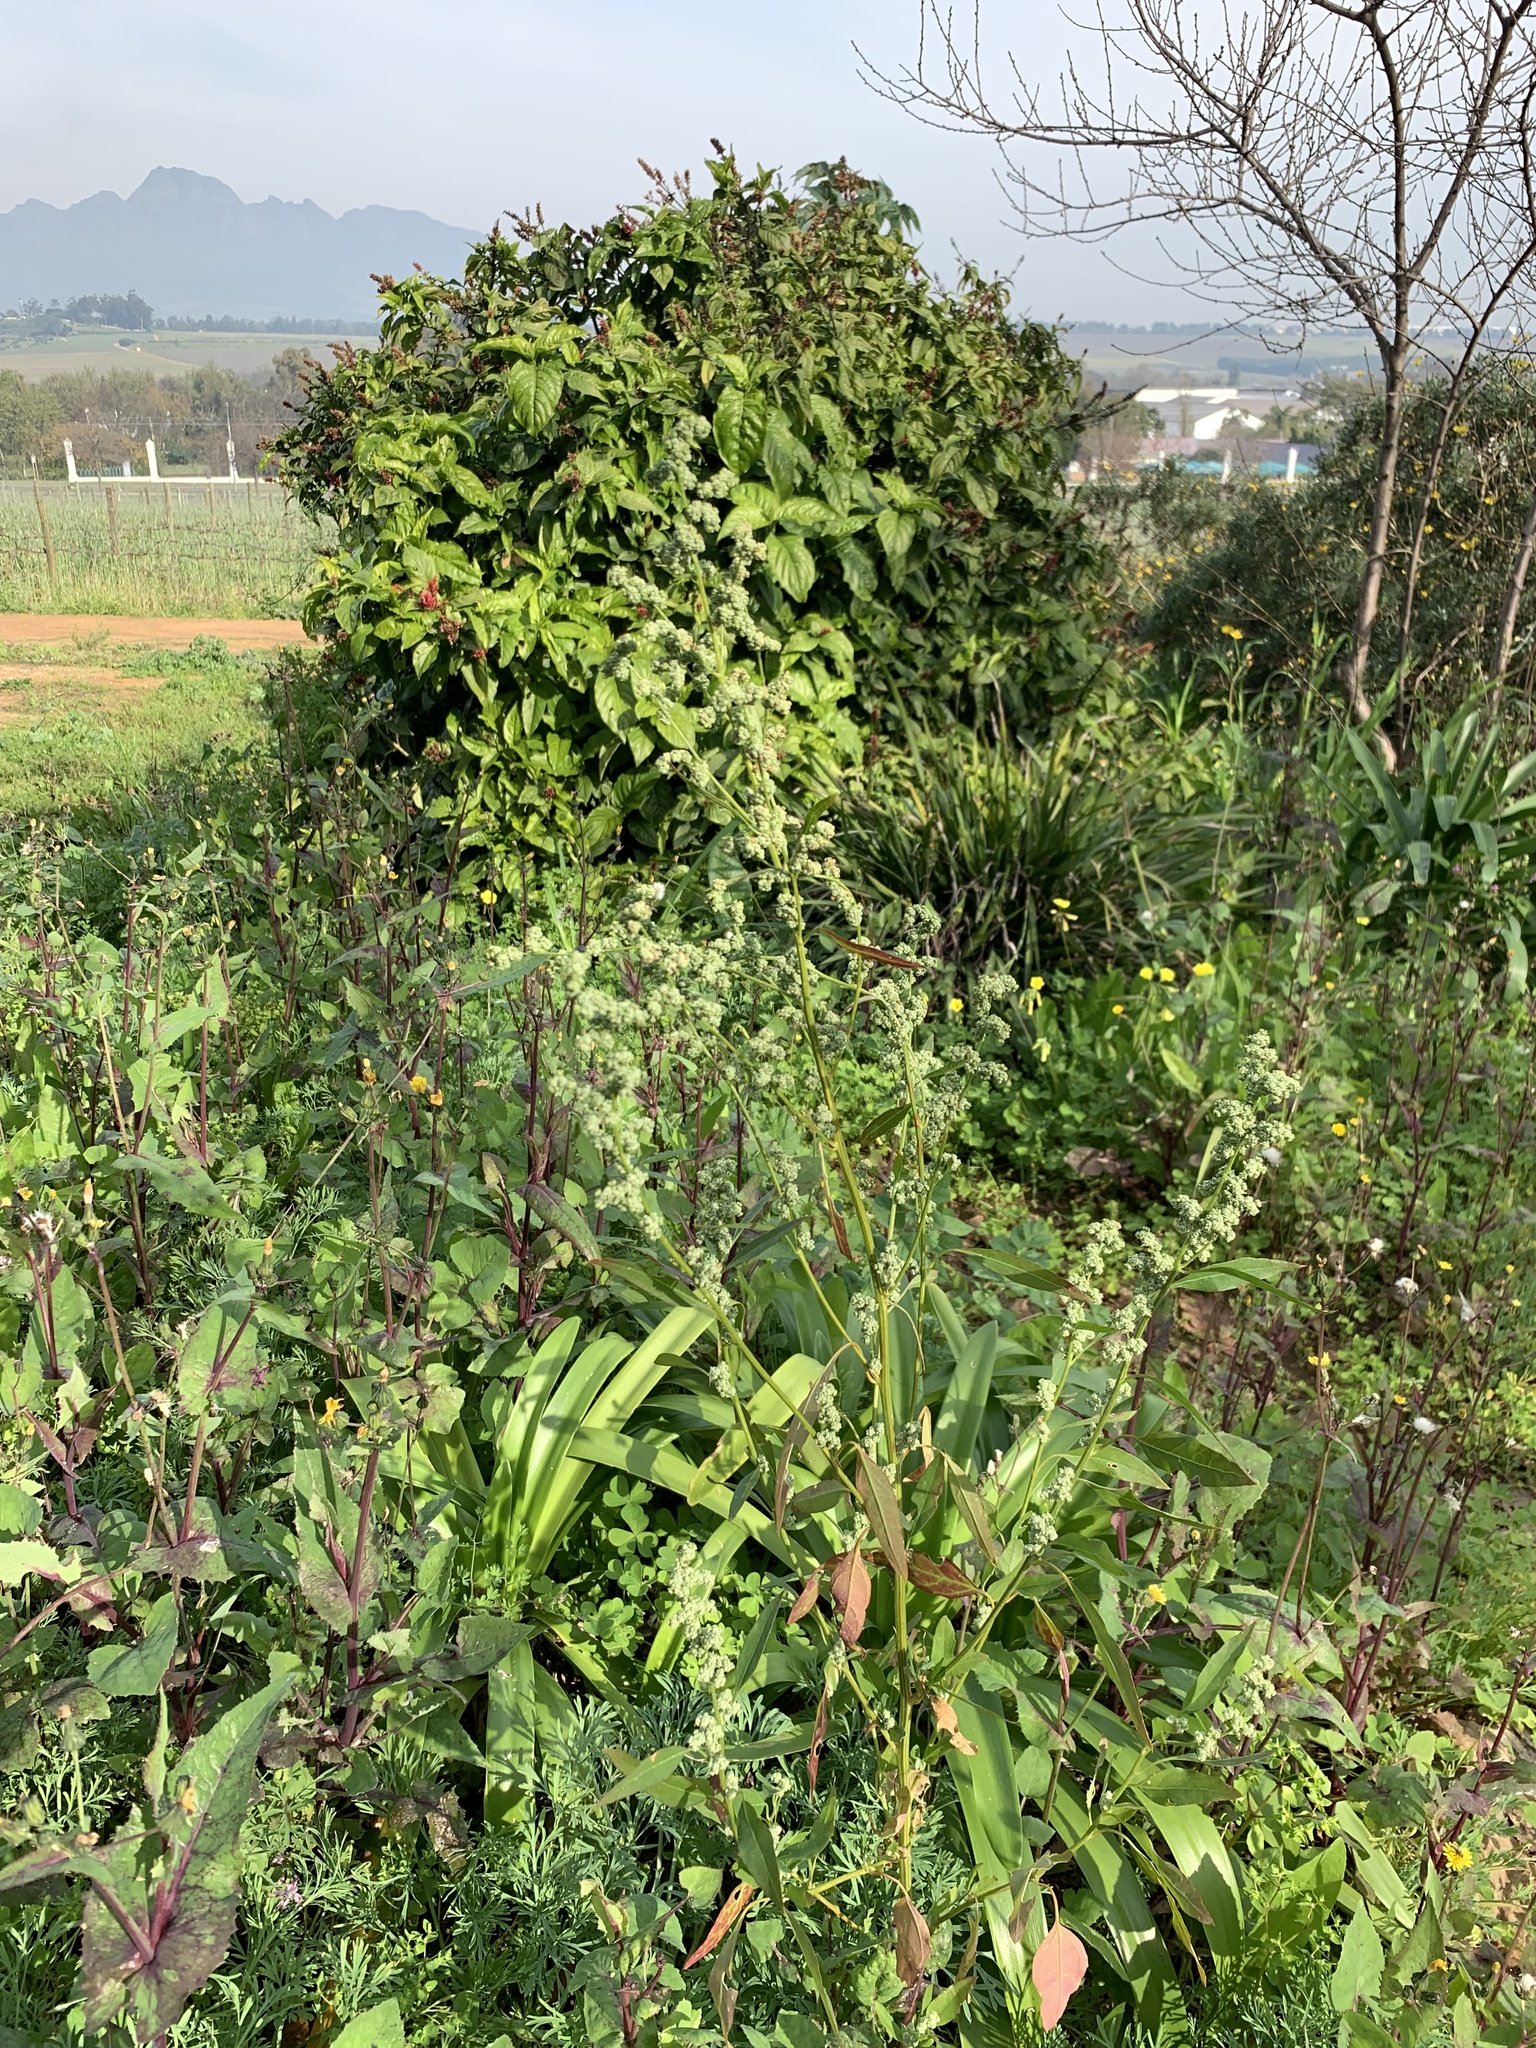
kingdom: Plantae
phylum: Tracheophyta
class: Magnoliopsida
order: Caryophyllales
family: Amaranthaceae
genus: Chenopodium
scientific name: Chenopodium album
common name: Fat-hen
